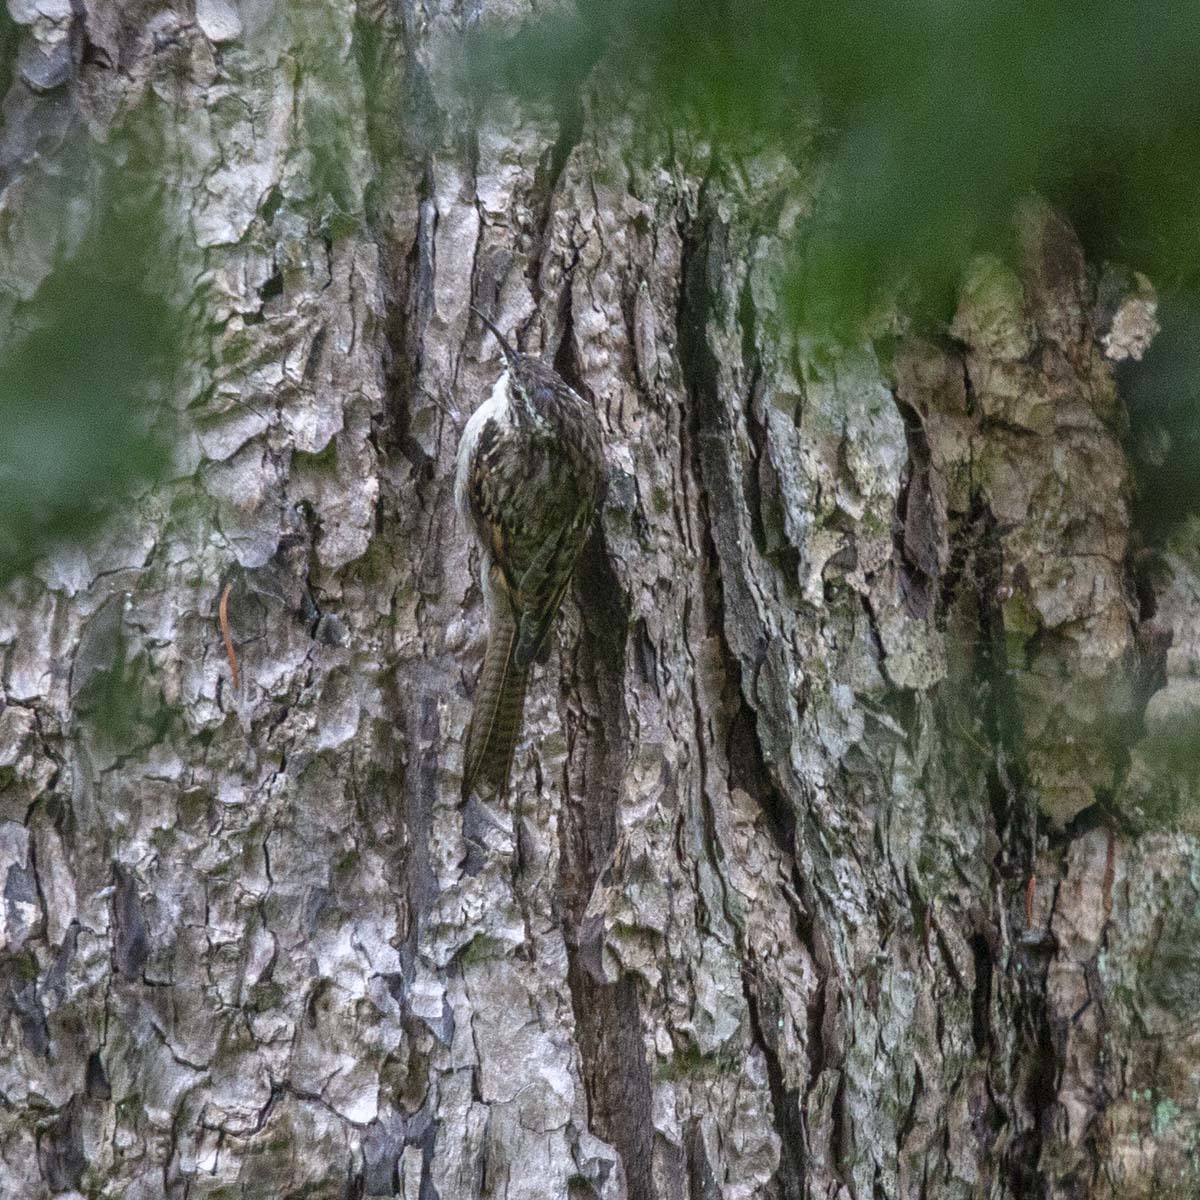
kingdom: Animalia
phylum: Chordata
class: Aves
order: Passeriformes
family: Certhiidae
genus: Certhia
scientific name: Certhia himalayana
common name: Bar-tailed treecreeper
